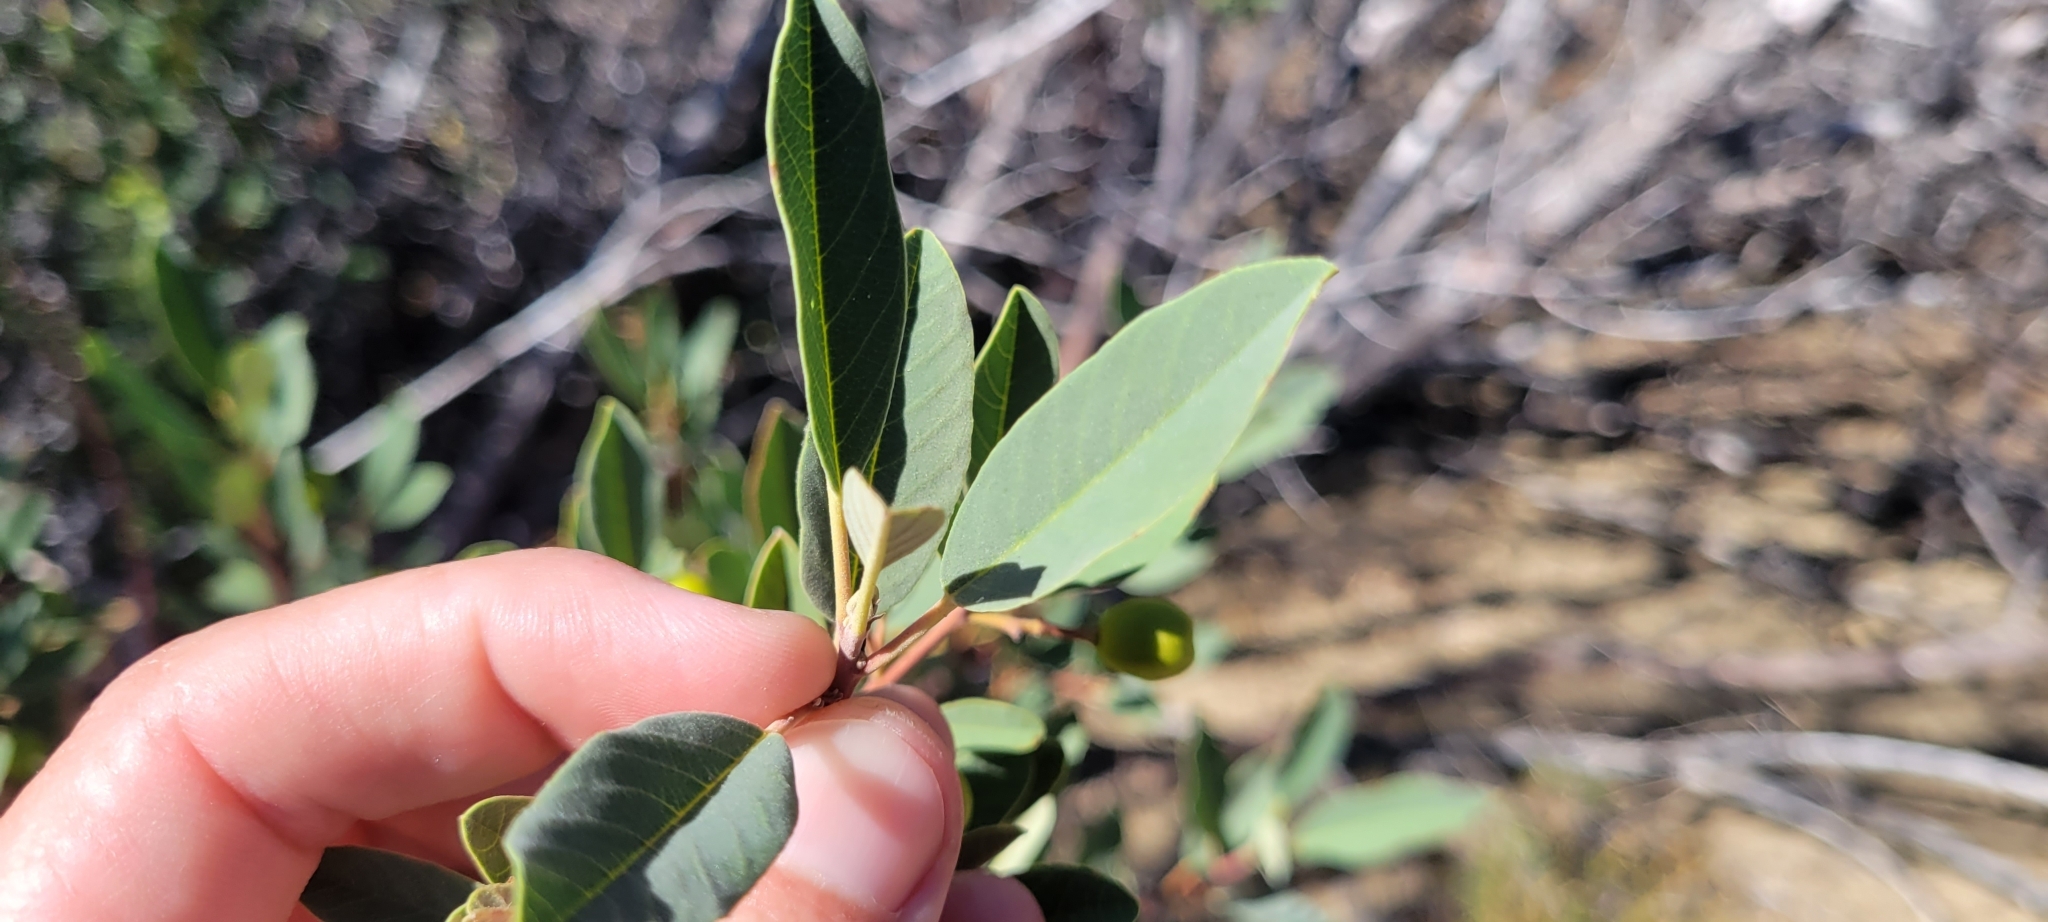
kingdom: Plantae
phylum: Tracheophyta
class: Magnoliopsida
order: Rosales
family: Rhamnaceae
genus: Frangula
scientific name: Frangula californica
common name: California buckthorn
